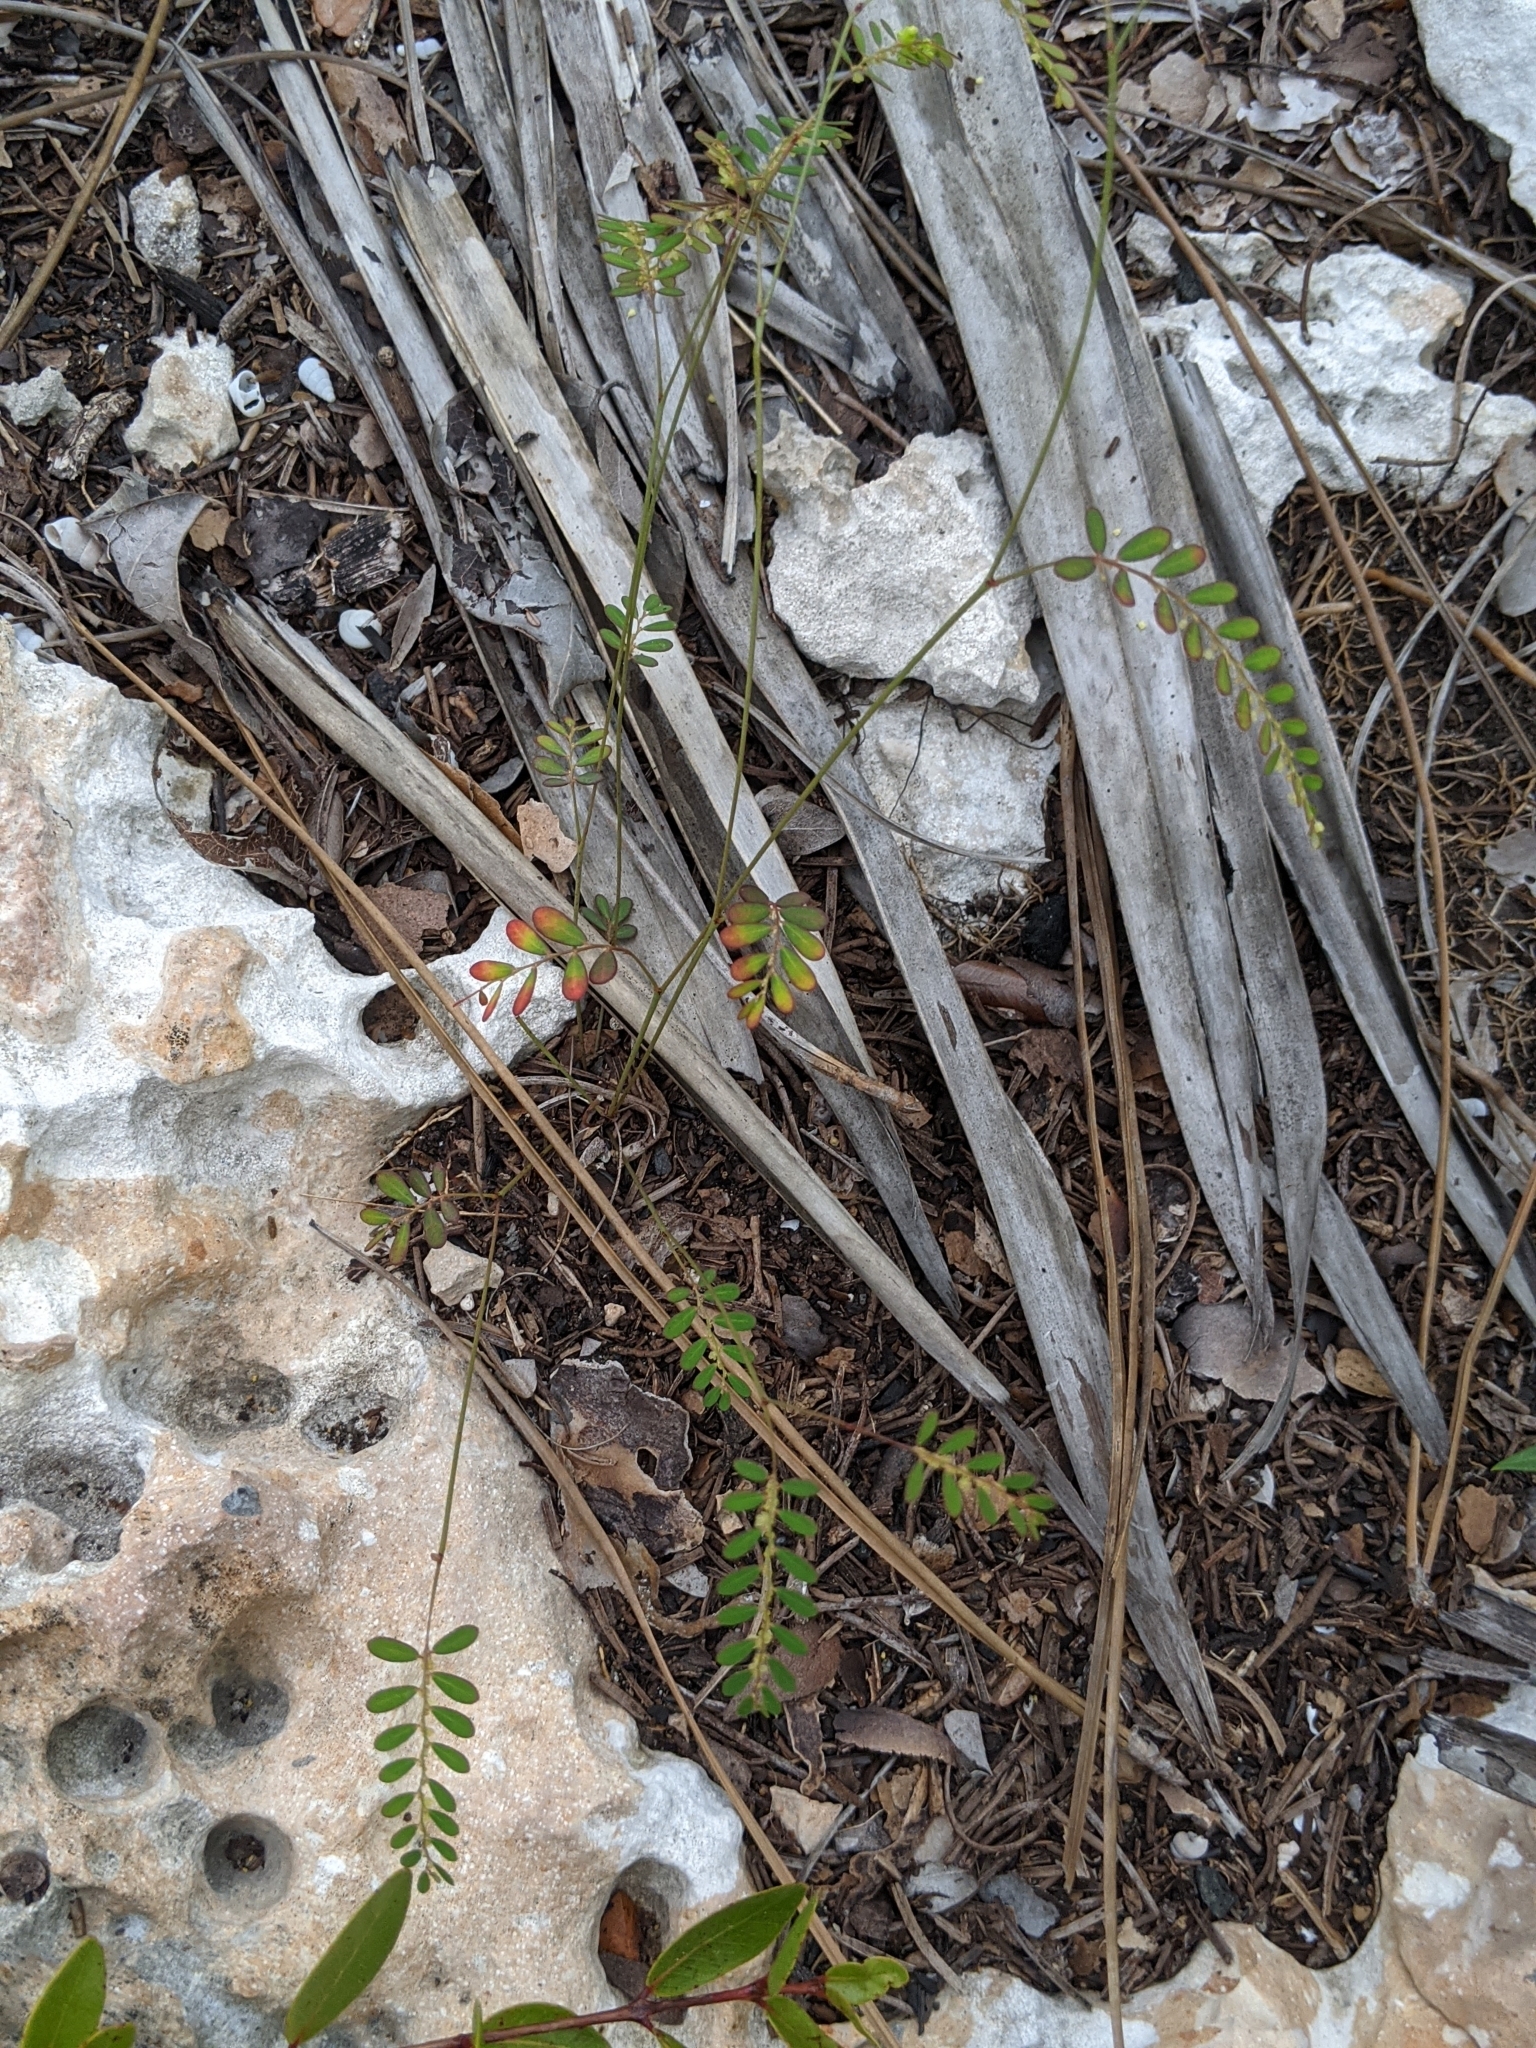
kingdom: Plantae
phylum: Tracheophyta
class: Magnoliopsida
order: Malpighiales
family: Phyllanthaceae
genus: Phyllanthus
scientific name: Phyllanthus pentaphyllus
